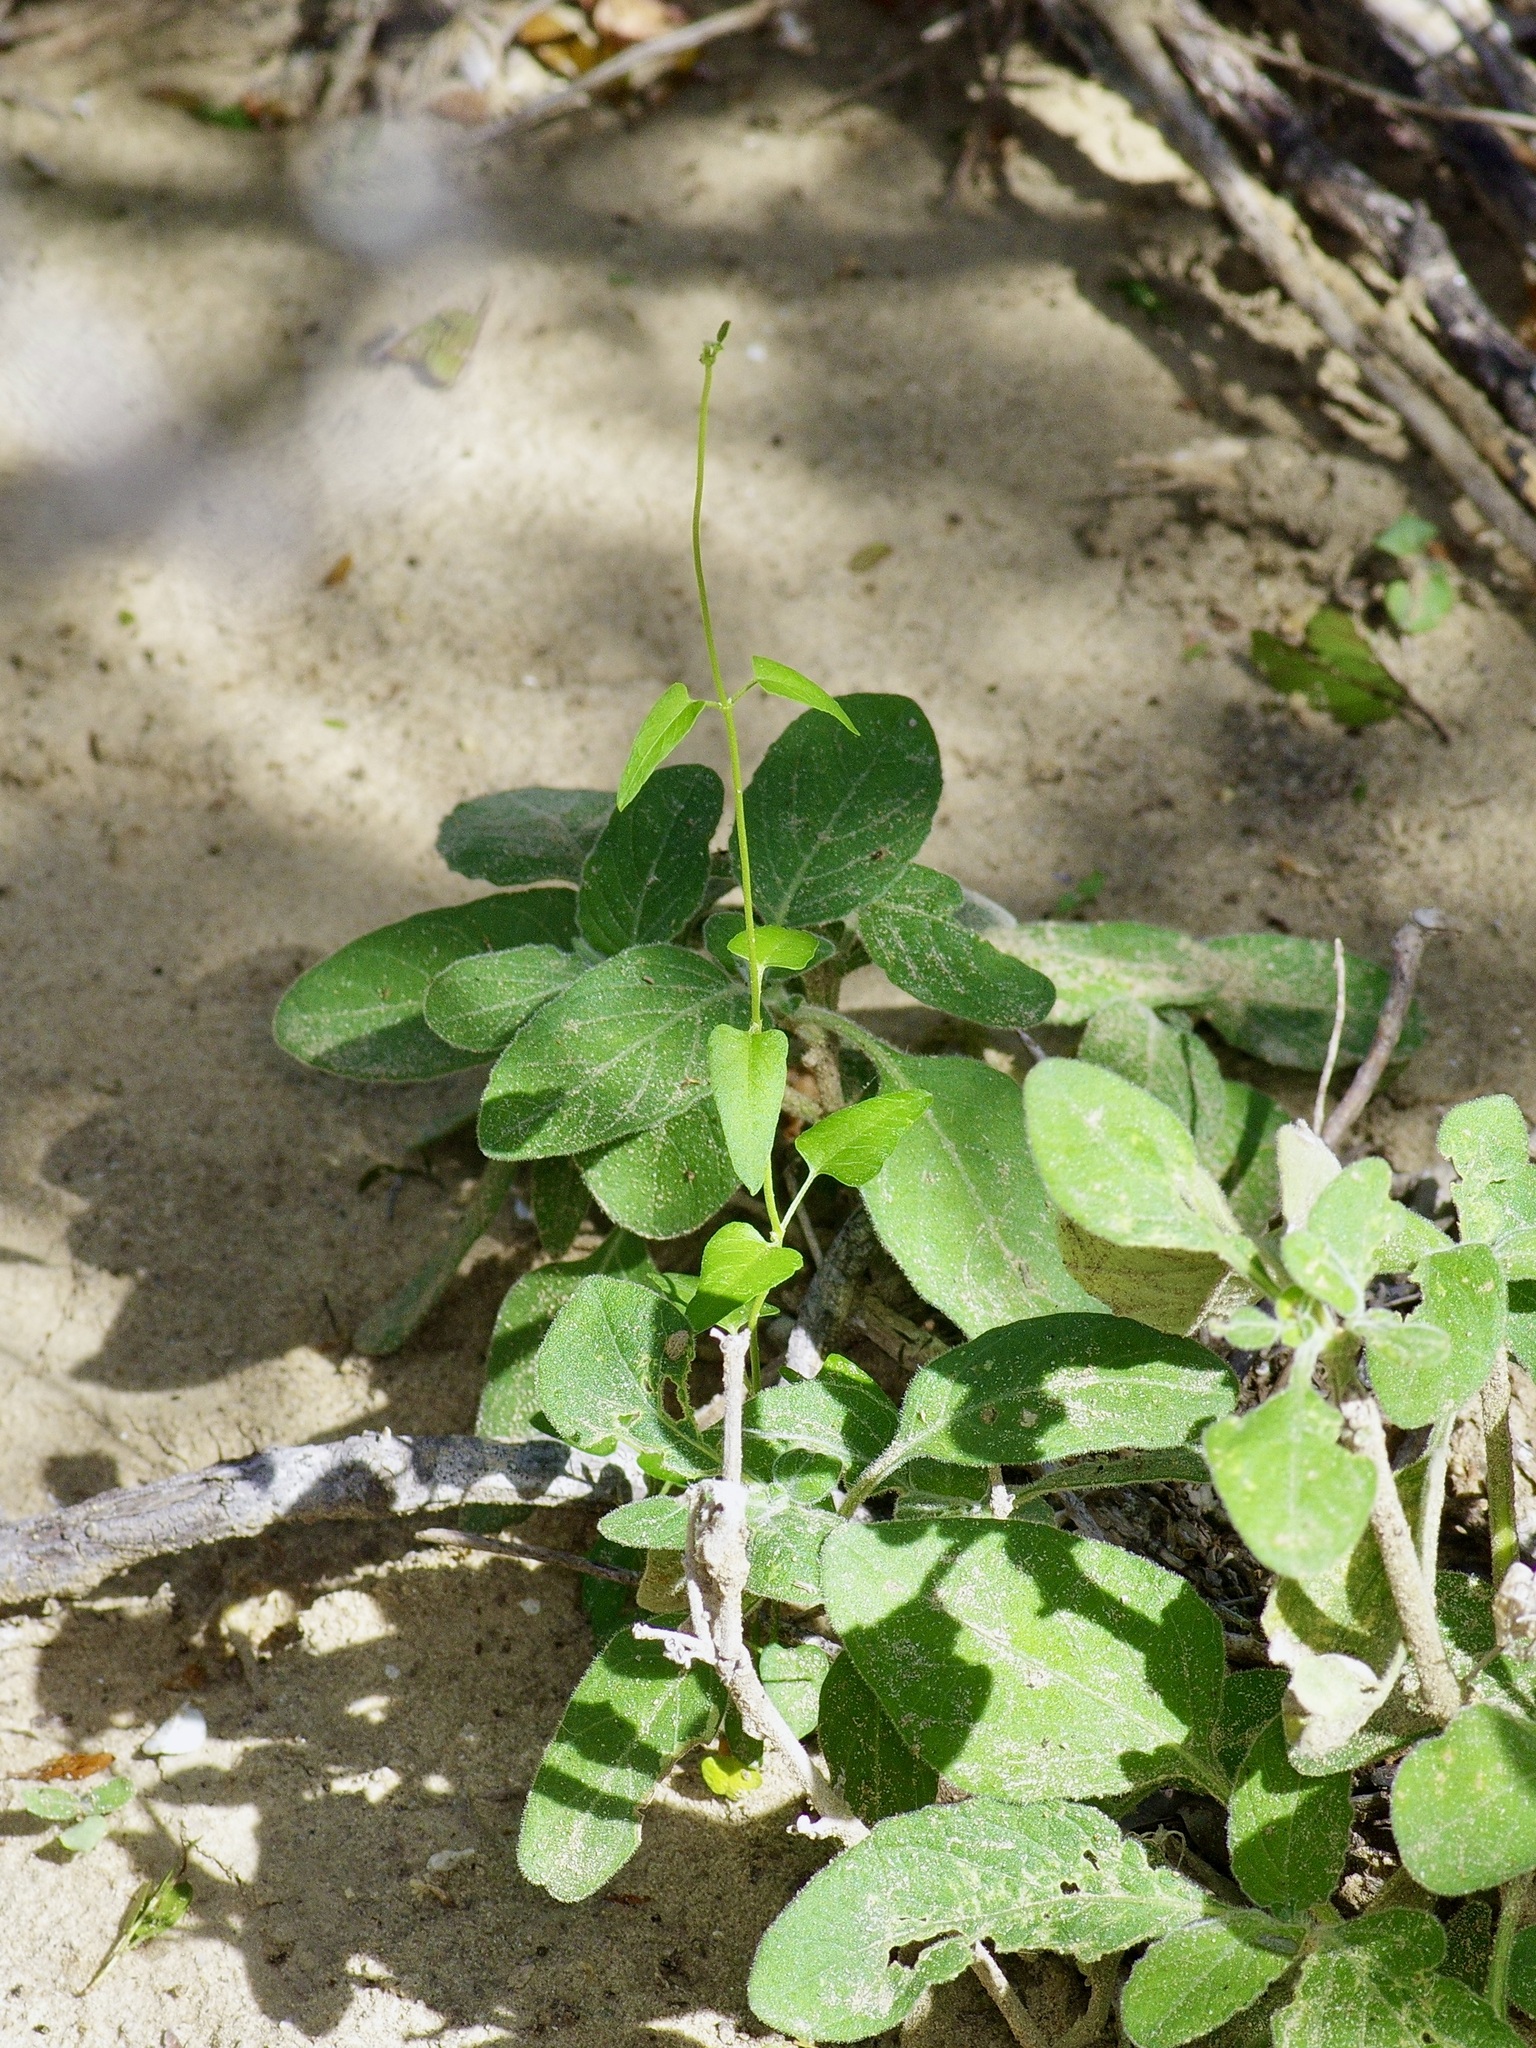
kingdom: Plantae
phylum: Tracheophyta
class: Magnoliopsida
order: Gentianales
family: Apocynaceae
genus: Matelea
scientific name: Matelea sagittifolia
